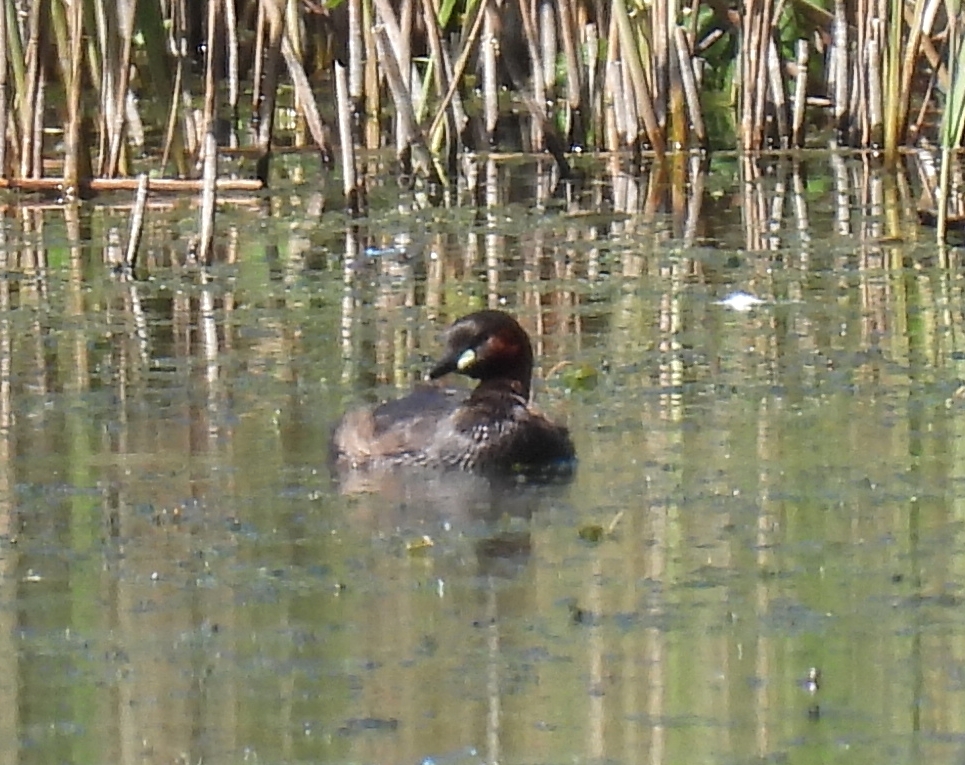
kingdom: Animalia
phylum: Chordata
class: Aves
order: Podicipediformes
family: Podicipedidae
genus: Tachybaptus
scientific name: Tachybaptus ruficollis
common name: Little grebe
